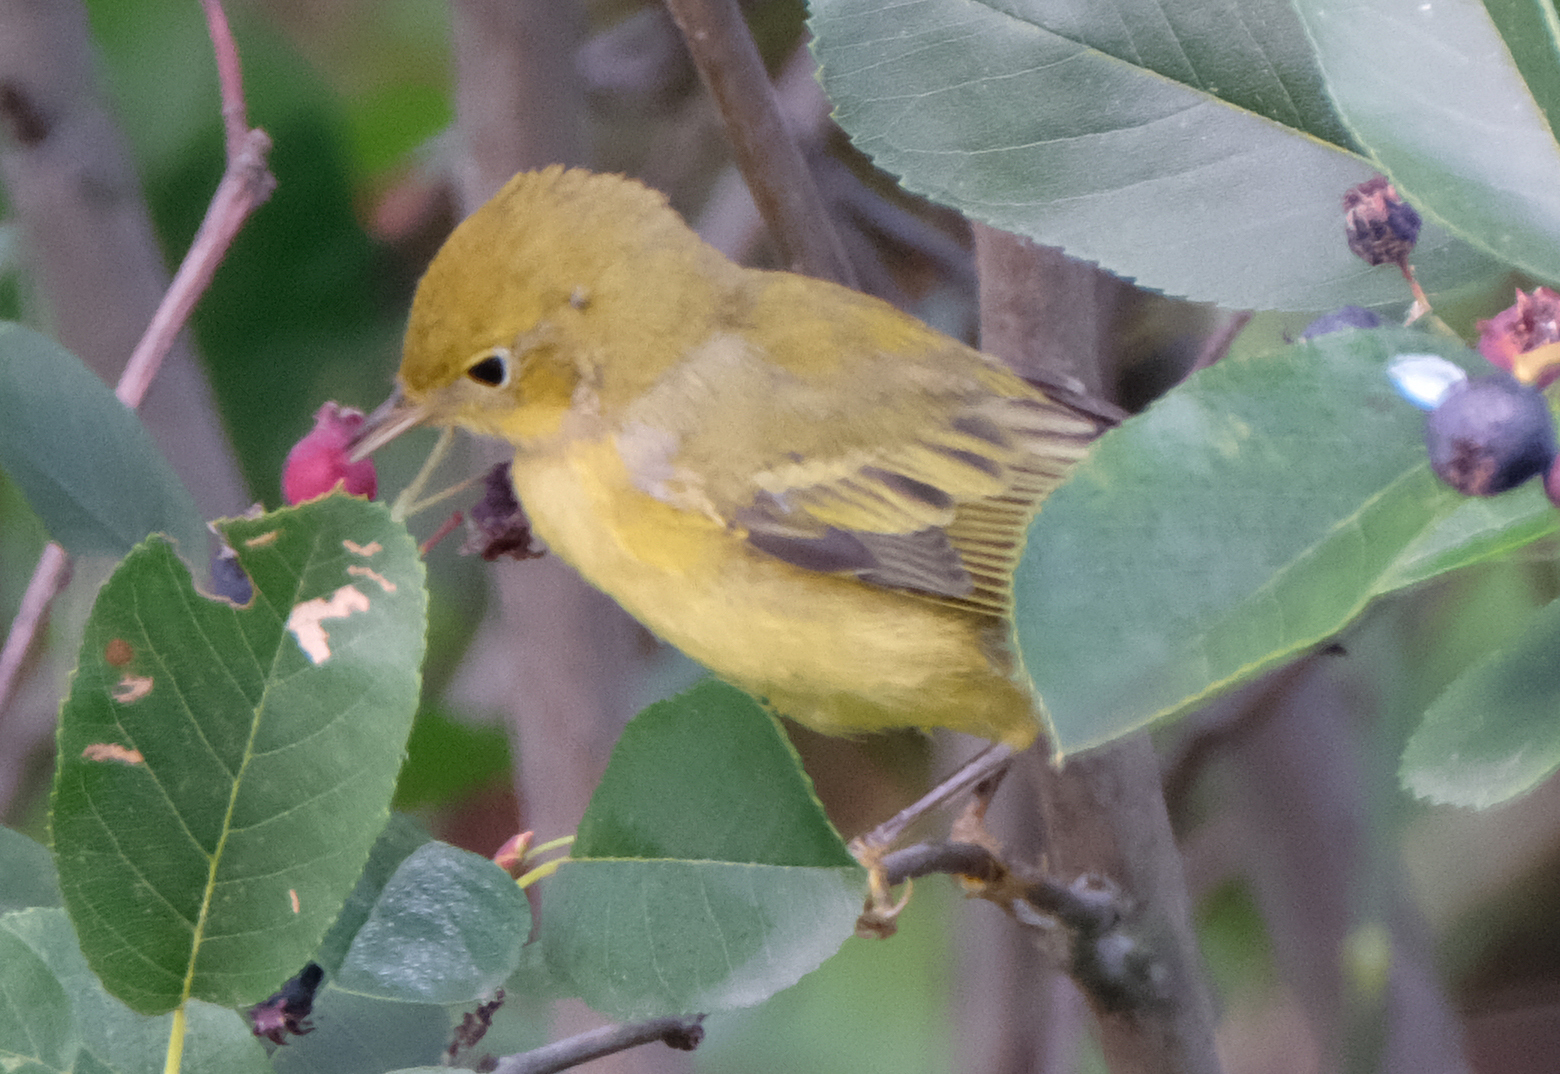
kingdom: Animalia
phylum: Chordata
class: Aves
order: Passeriformes
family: Parulidae
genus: Setophaga
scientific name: Setophaga petechia
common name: Yellow warbler
